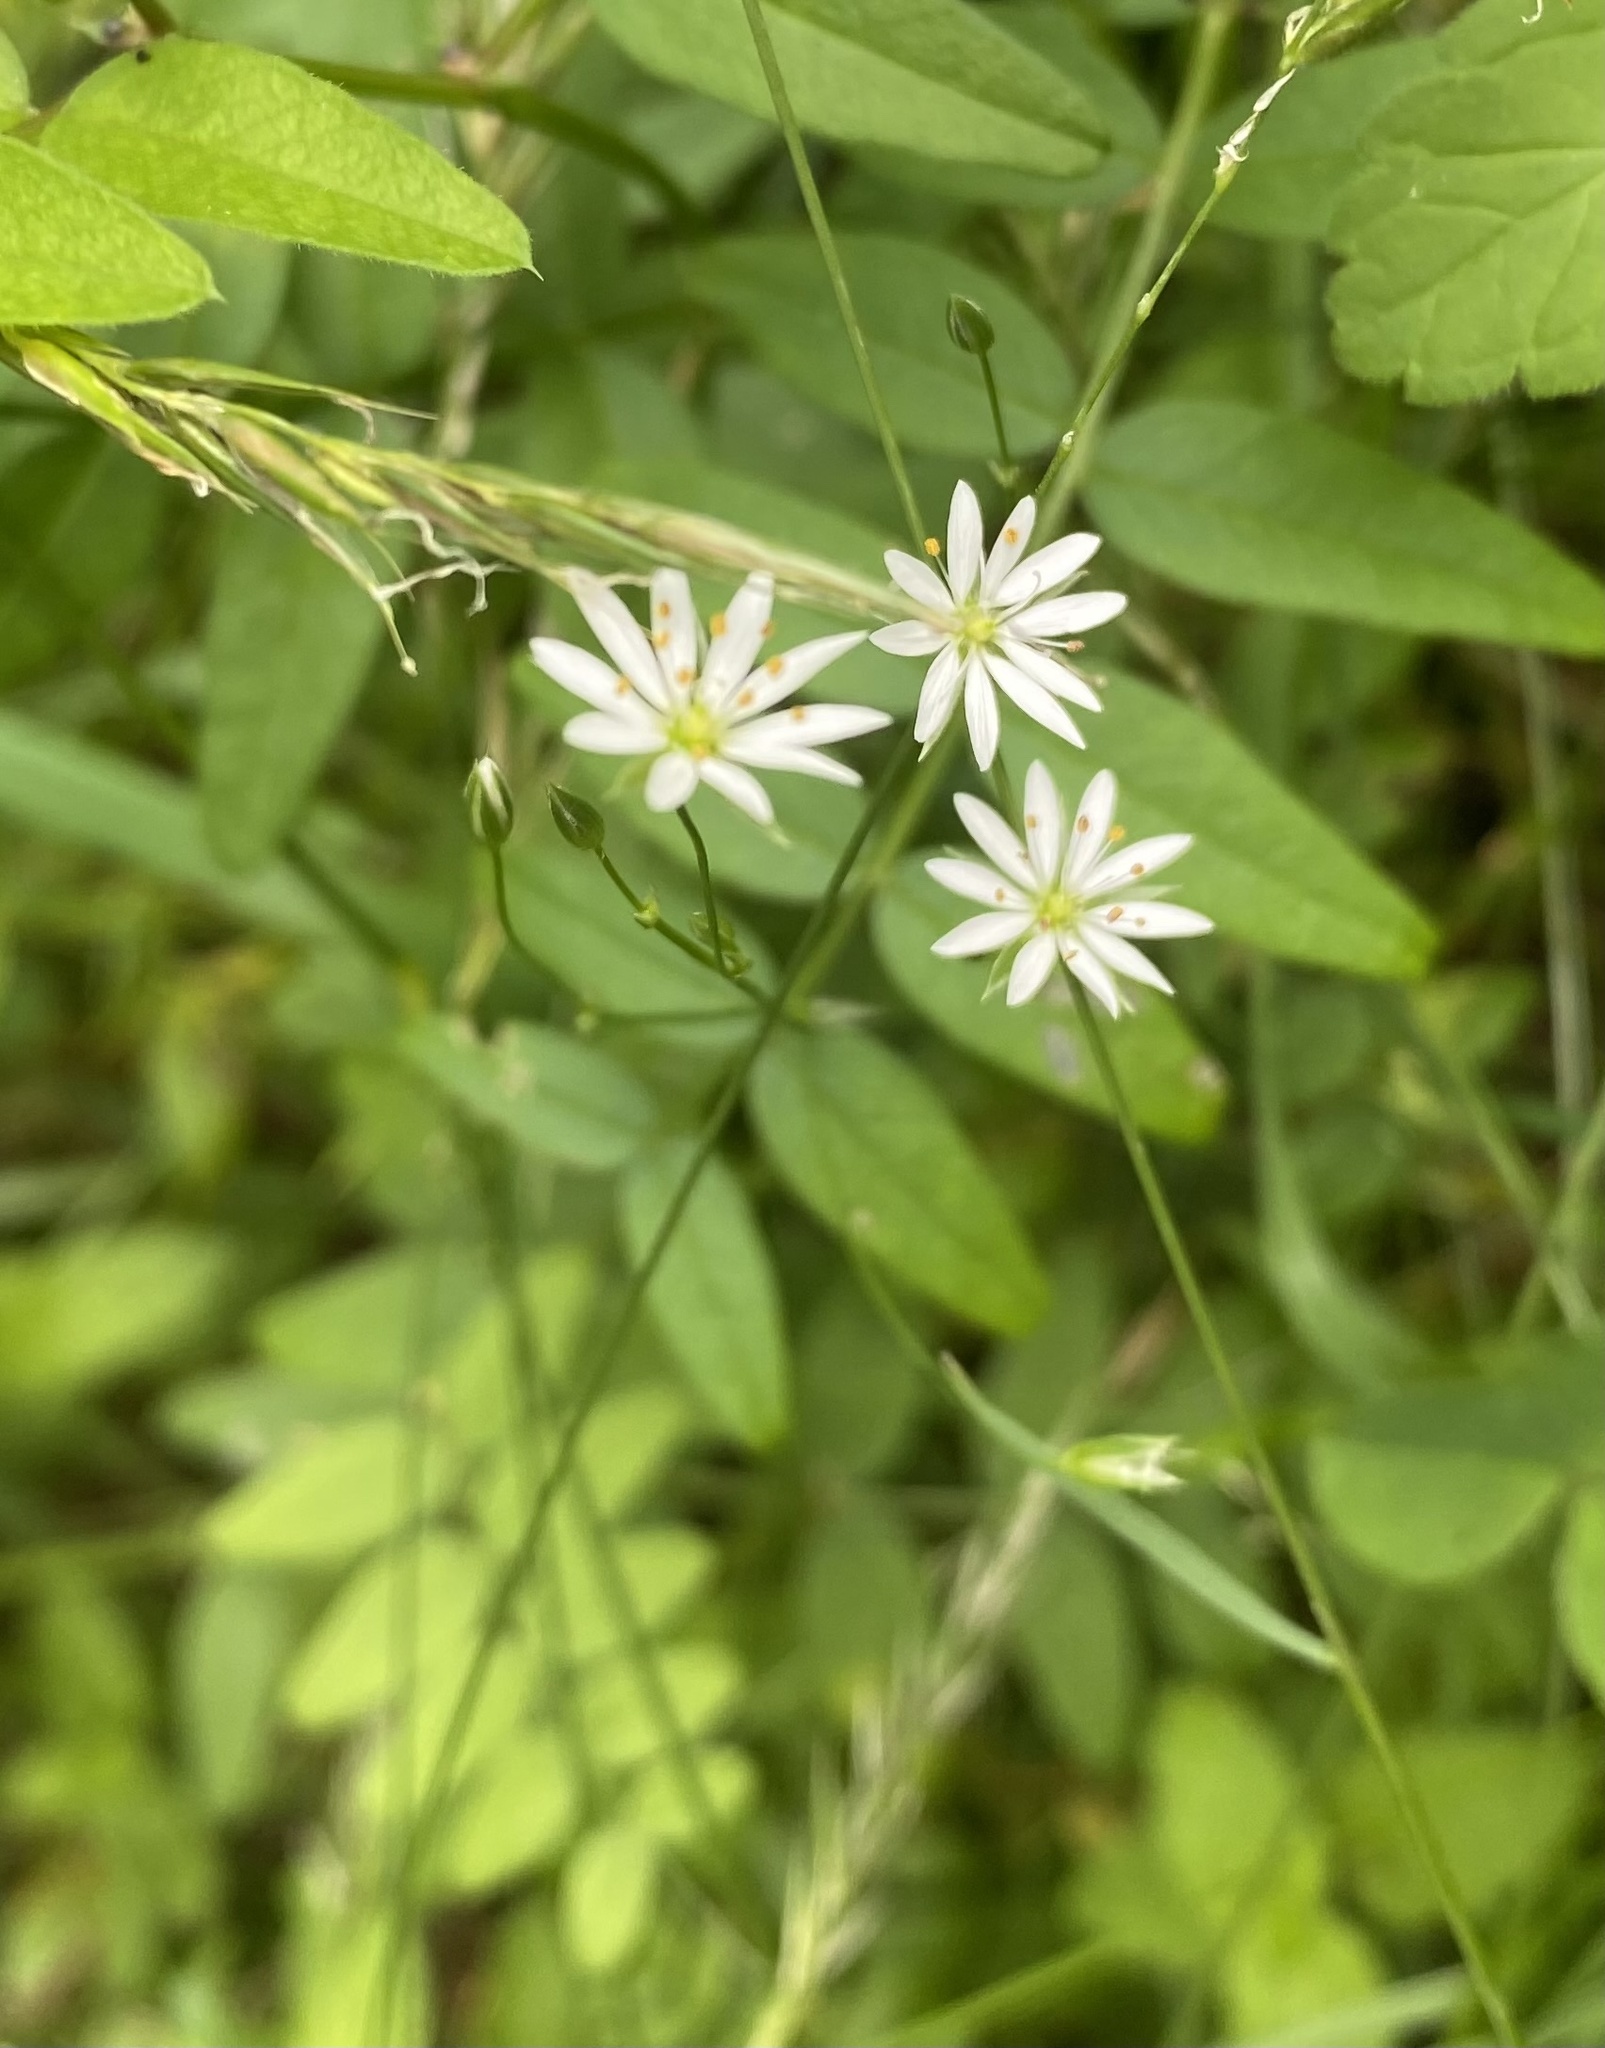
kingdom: Plantae
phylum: Tracheophyta
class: Magnoliopsida
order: Caryophyllales
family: Caryophyllaceae
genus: Stellaria
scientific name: Stellaria graminea
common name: Grass-like starwort
